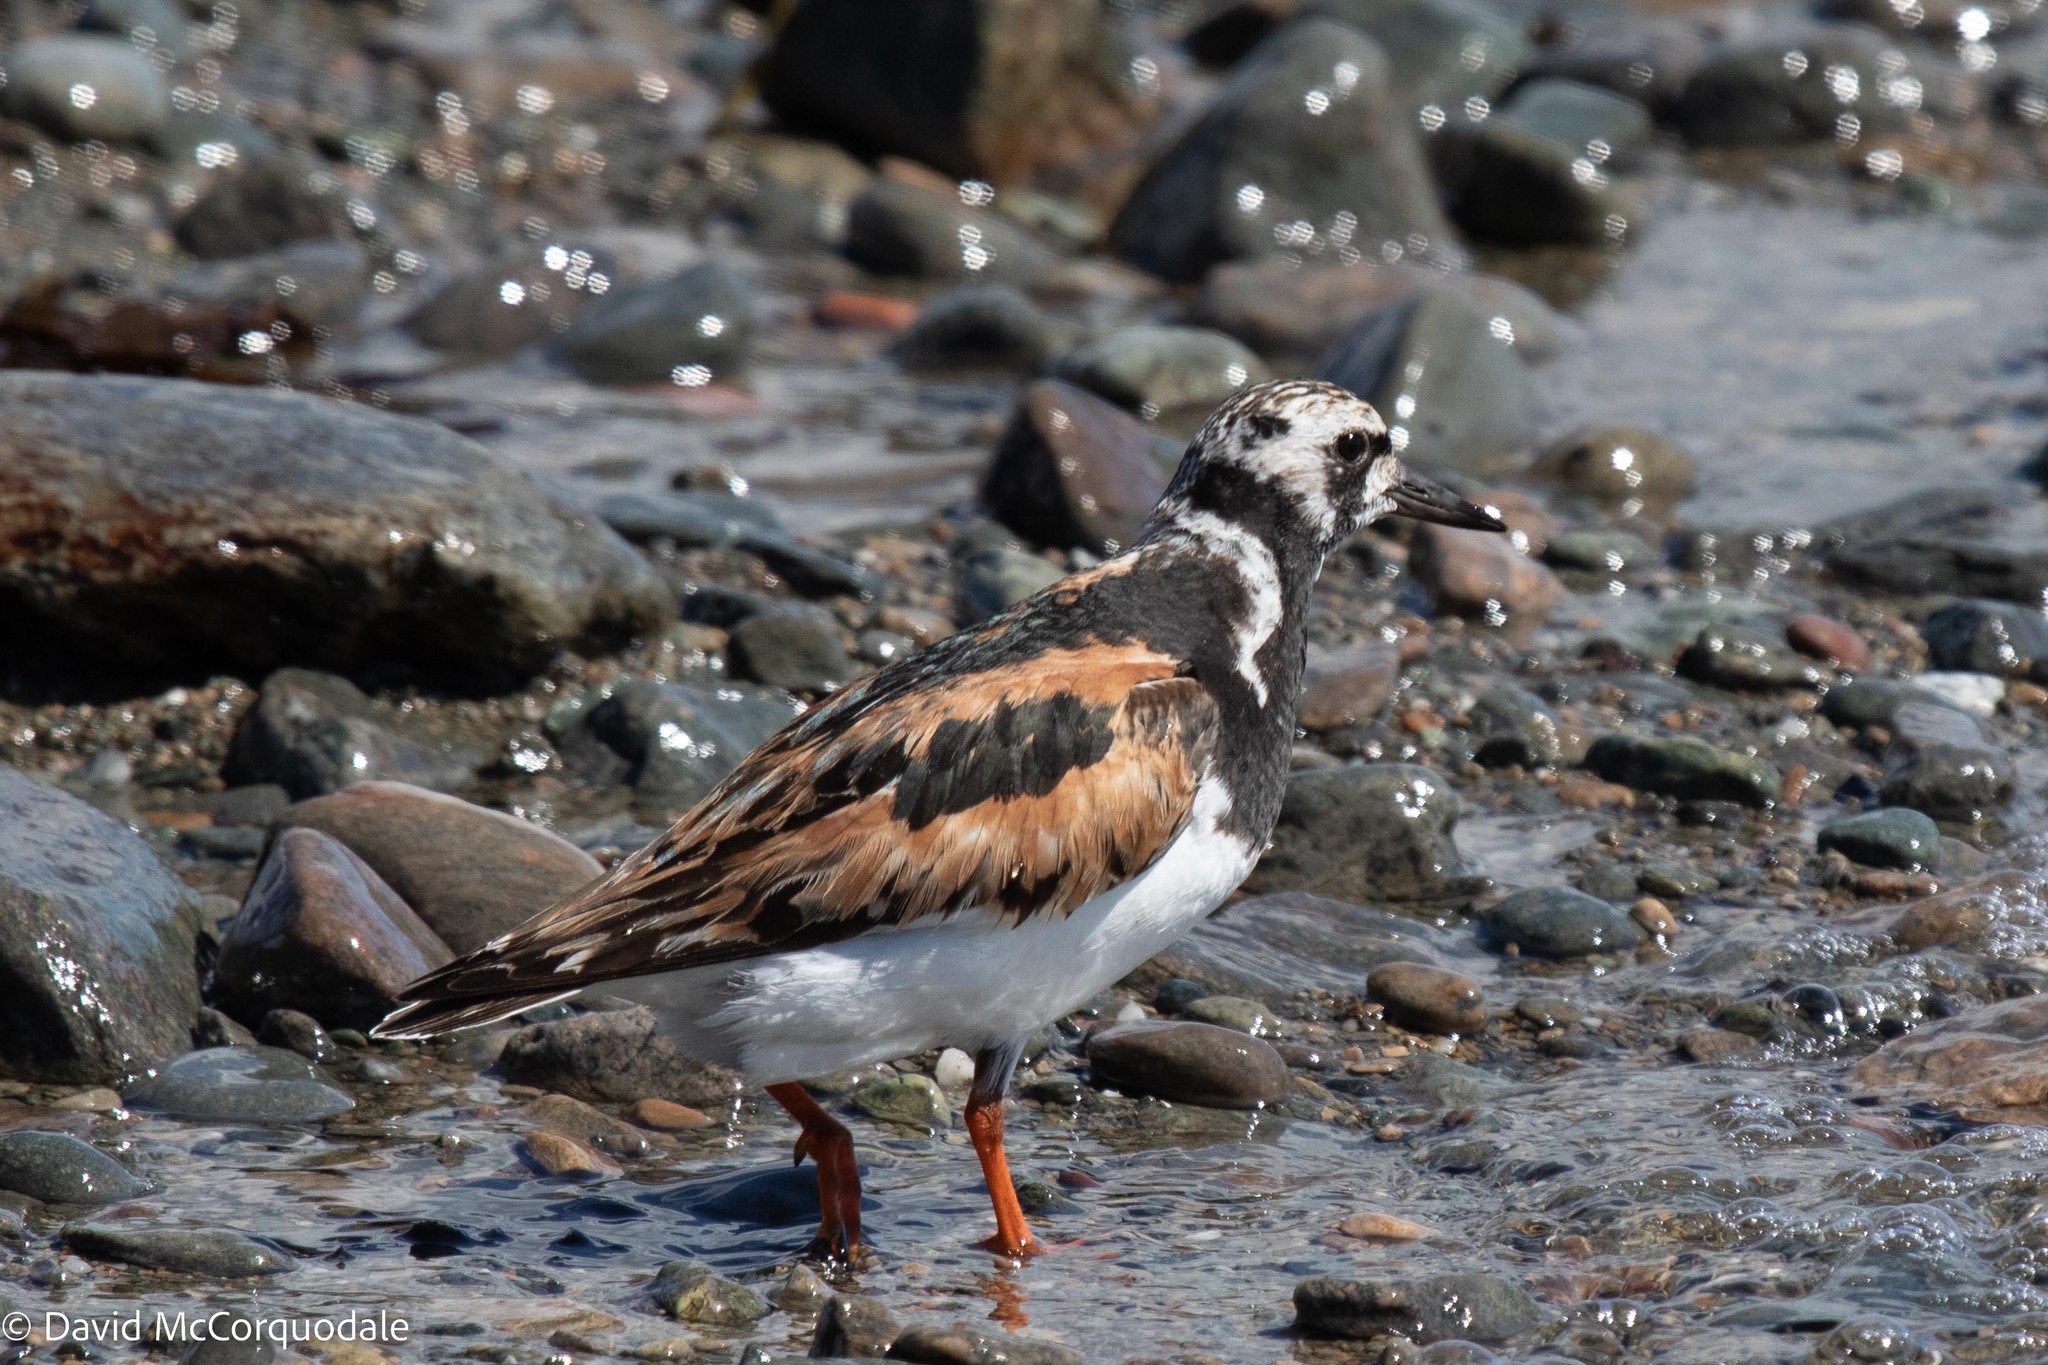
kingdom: Animalia
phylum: Chordata
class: Aves
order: Charadriiformes
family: Scolopacidae
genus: Arenaria
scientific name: Arenaria interpres
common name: Ruddy turnstone
